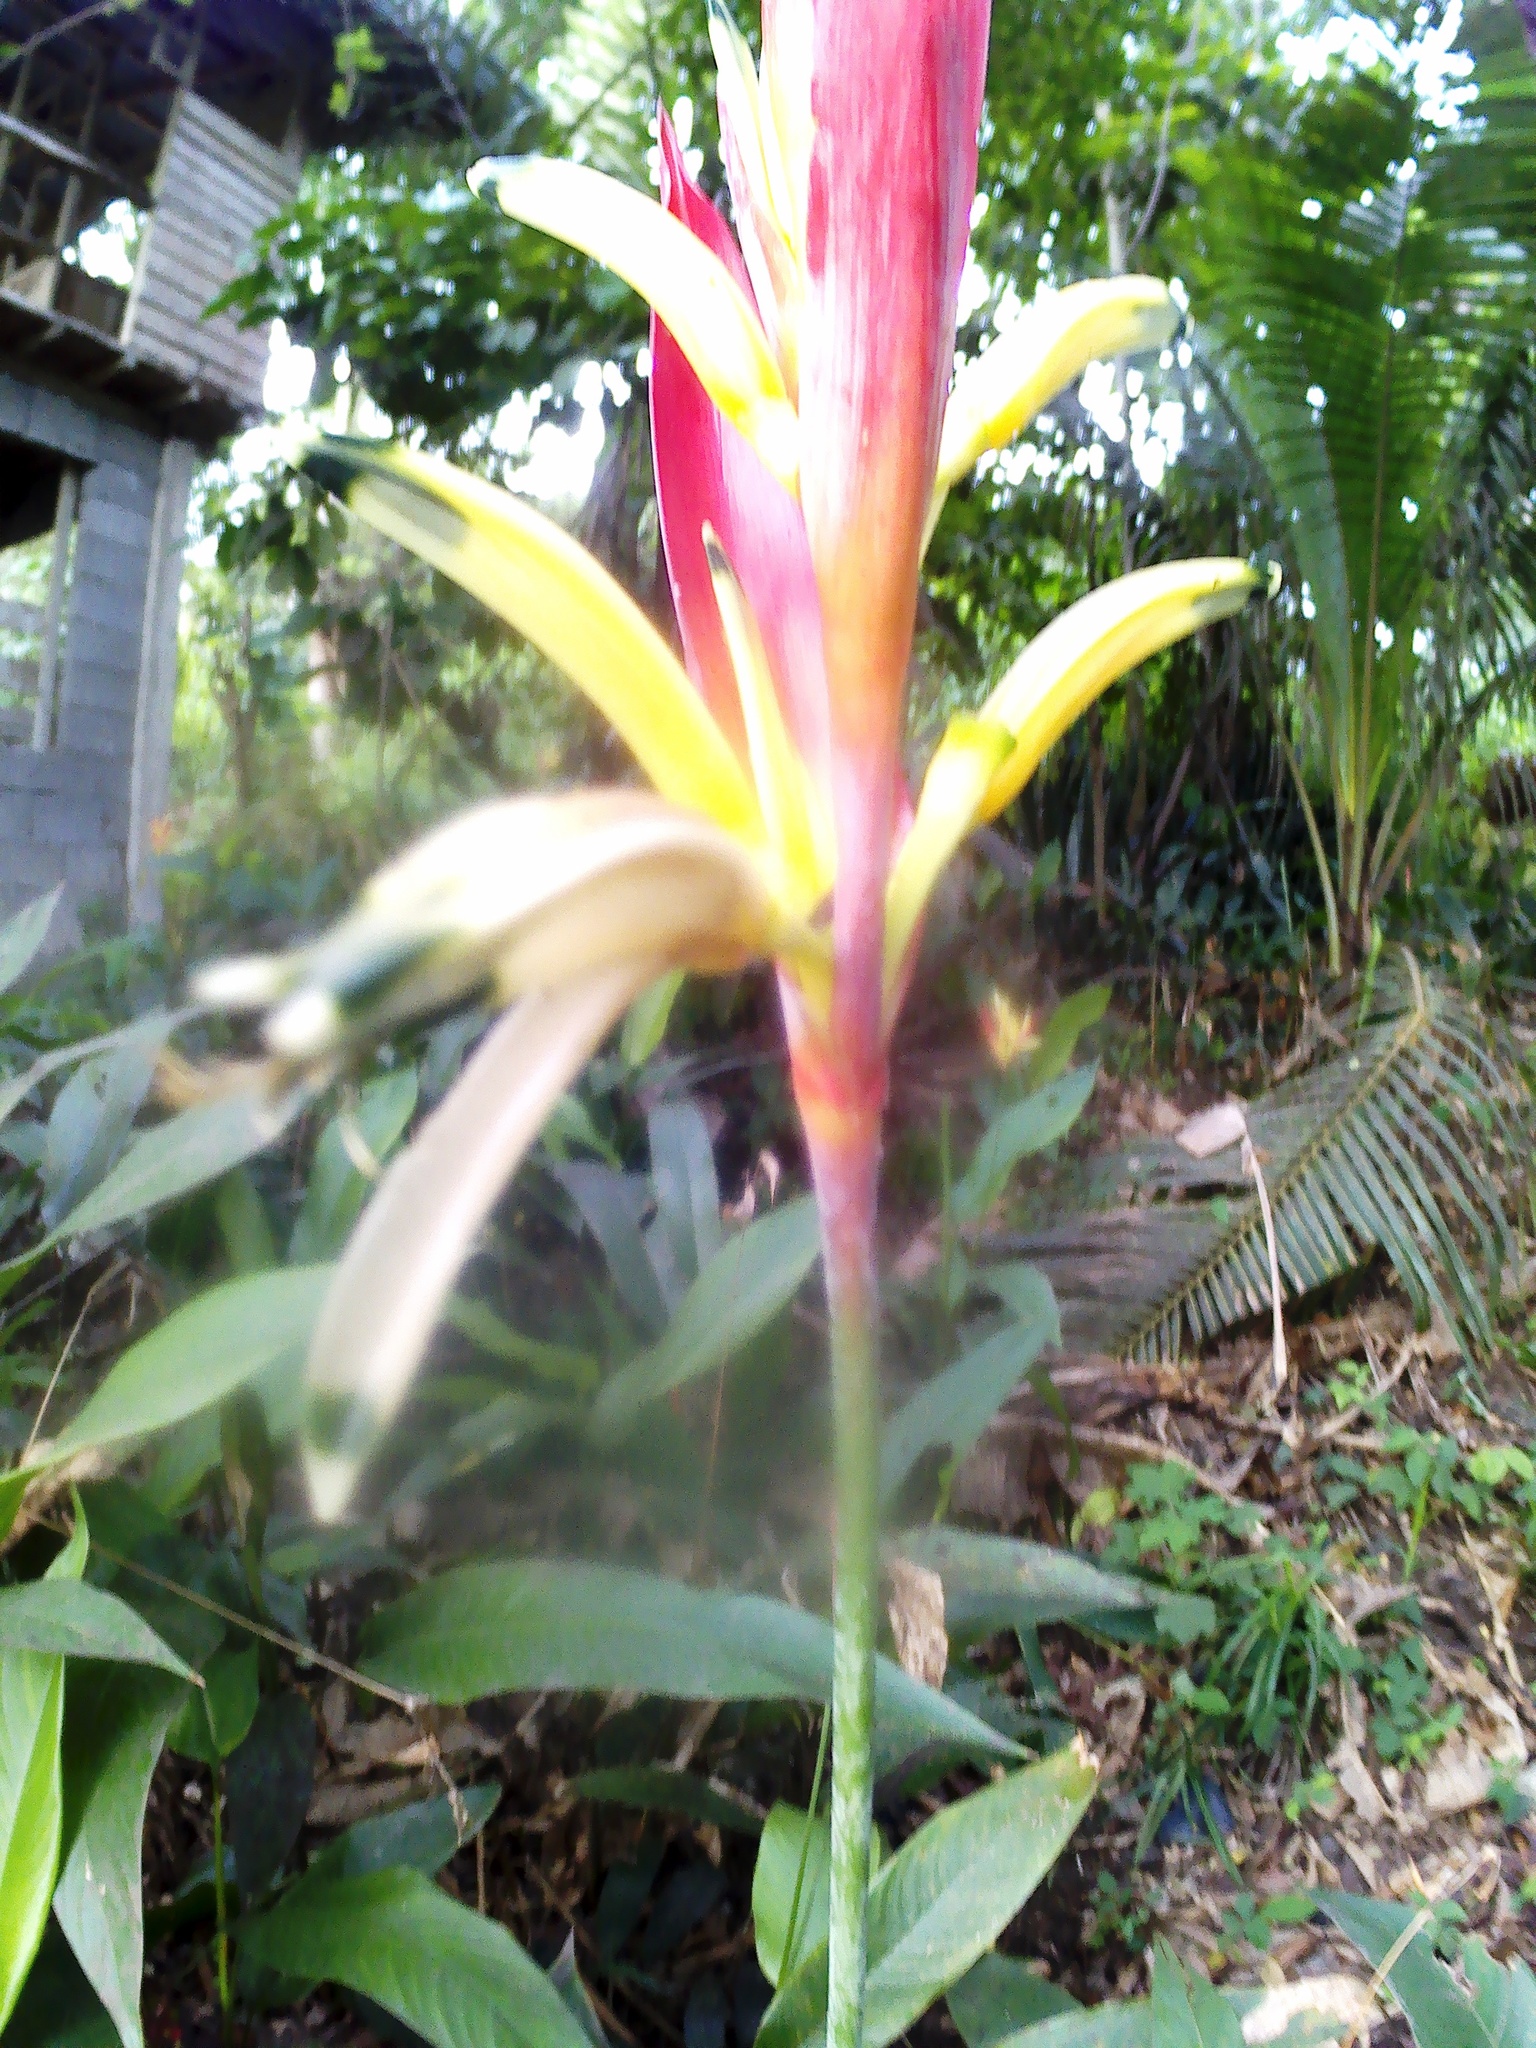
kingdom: Plantae
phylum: Tracheophyta
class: Liliopsida
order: Zingiberales
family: Heliconiaceae
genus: Heliconia
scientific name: Heliconia psittacorum
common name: Parrot's-flower
